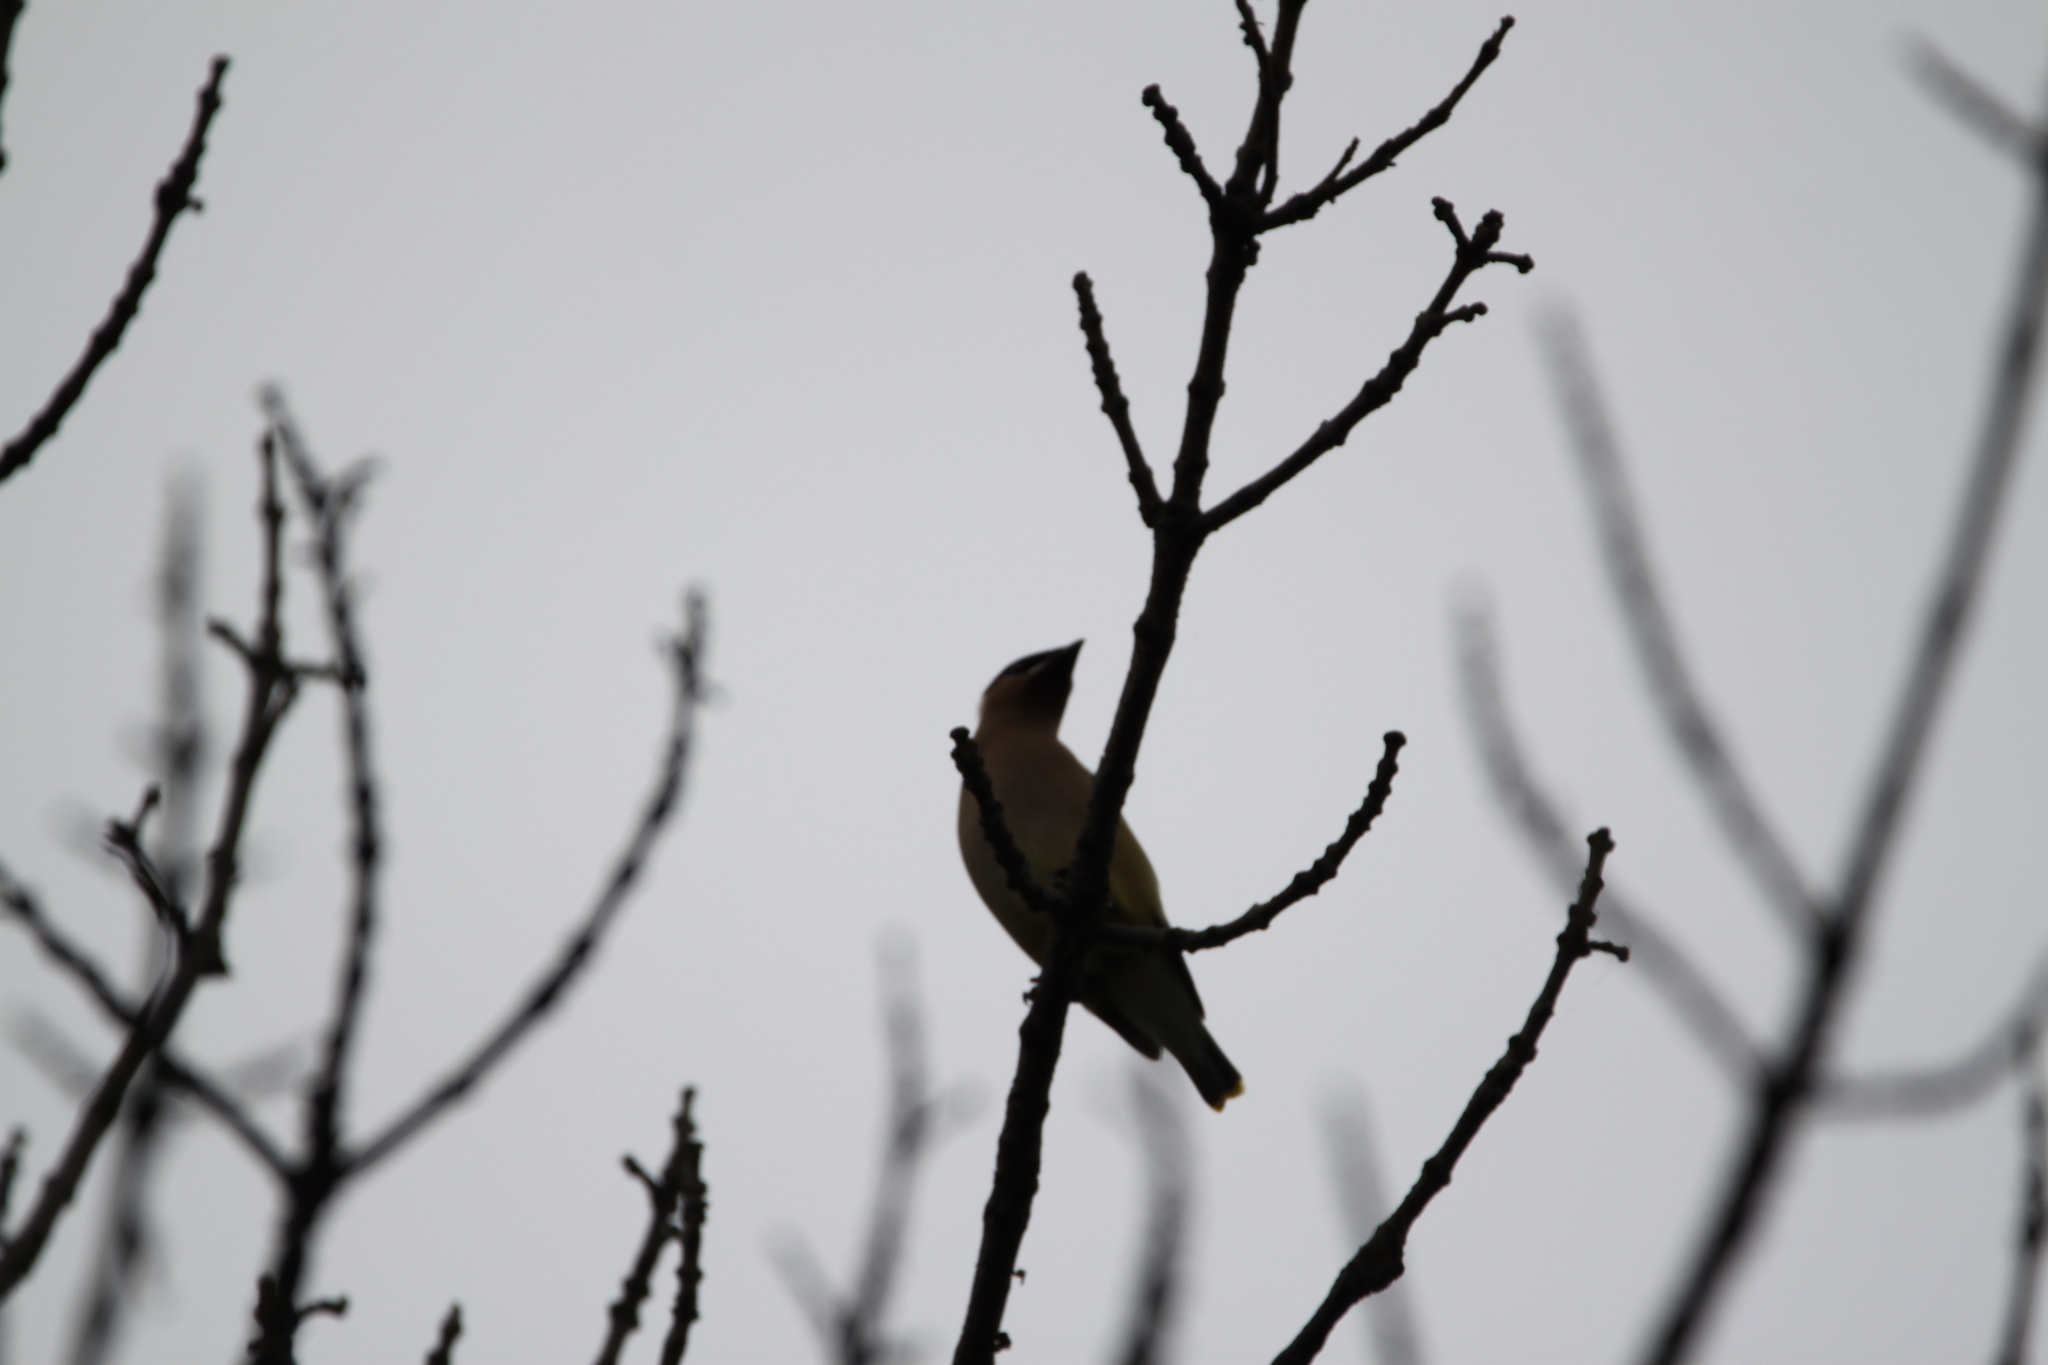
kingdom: Animalia
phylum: Chordata
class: Aves
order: Passeriformes
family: Bombycillidae
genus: Bombycilla
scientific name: Bombycilla cedrorum
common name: Cedar waxwing
